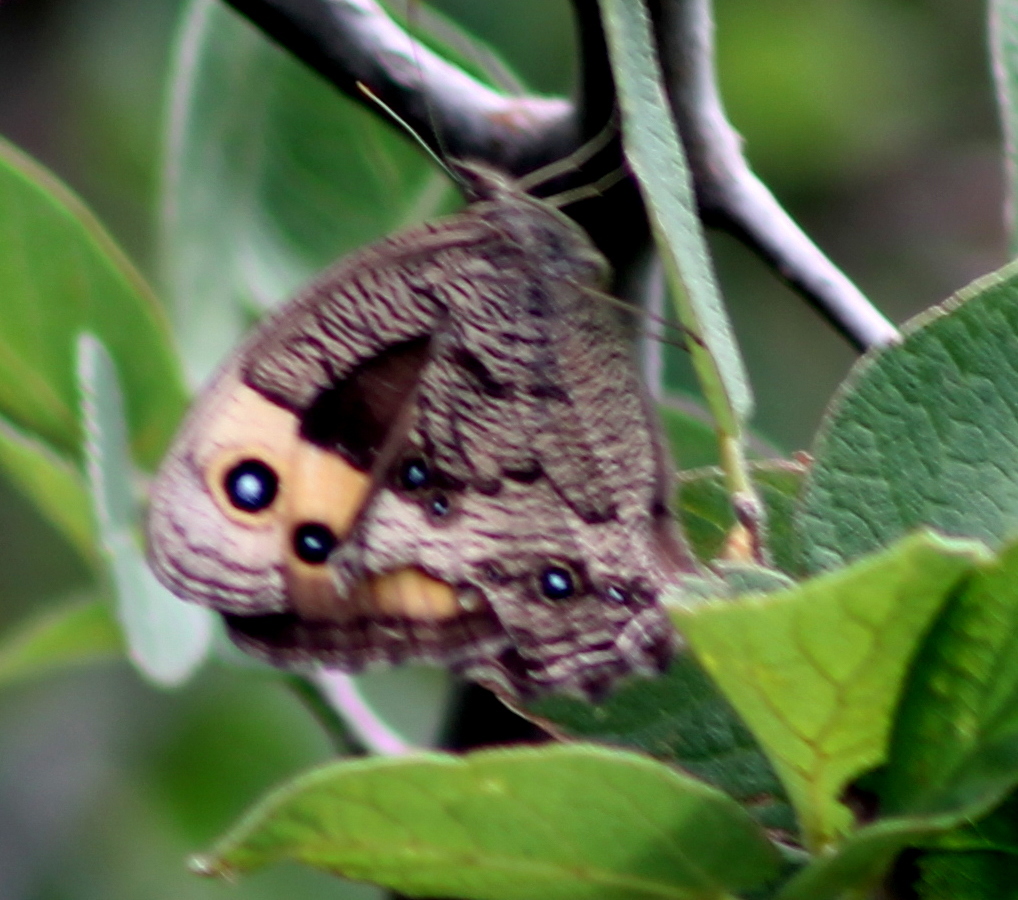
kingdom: Animalia
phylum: Arthropoda
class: Insecta
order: Lepidoptera
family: Nymphalidae
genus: Cercyonis
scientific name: Cercyonis pegala
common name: Common wood-nymph
